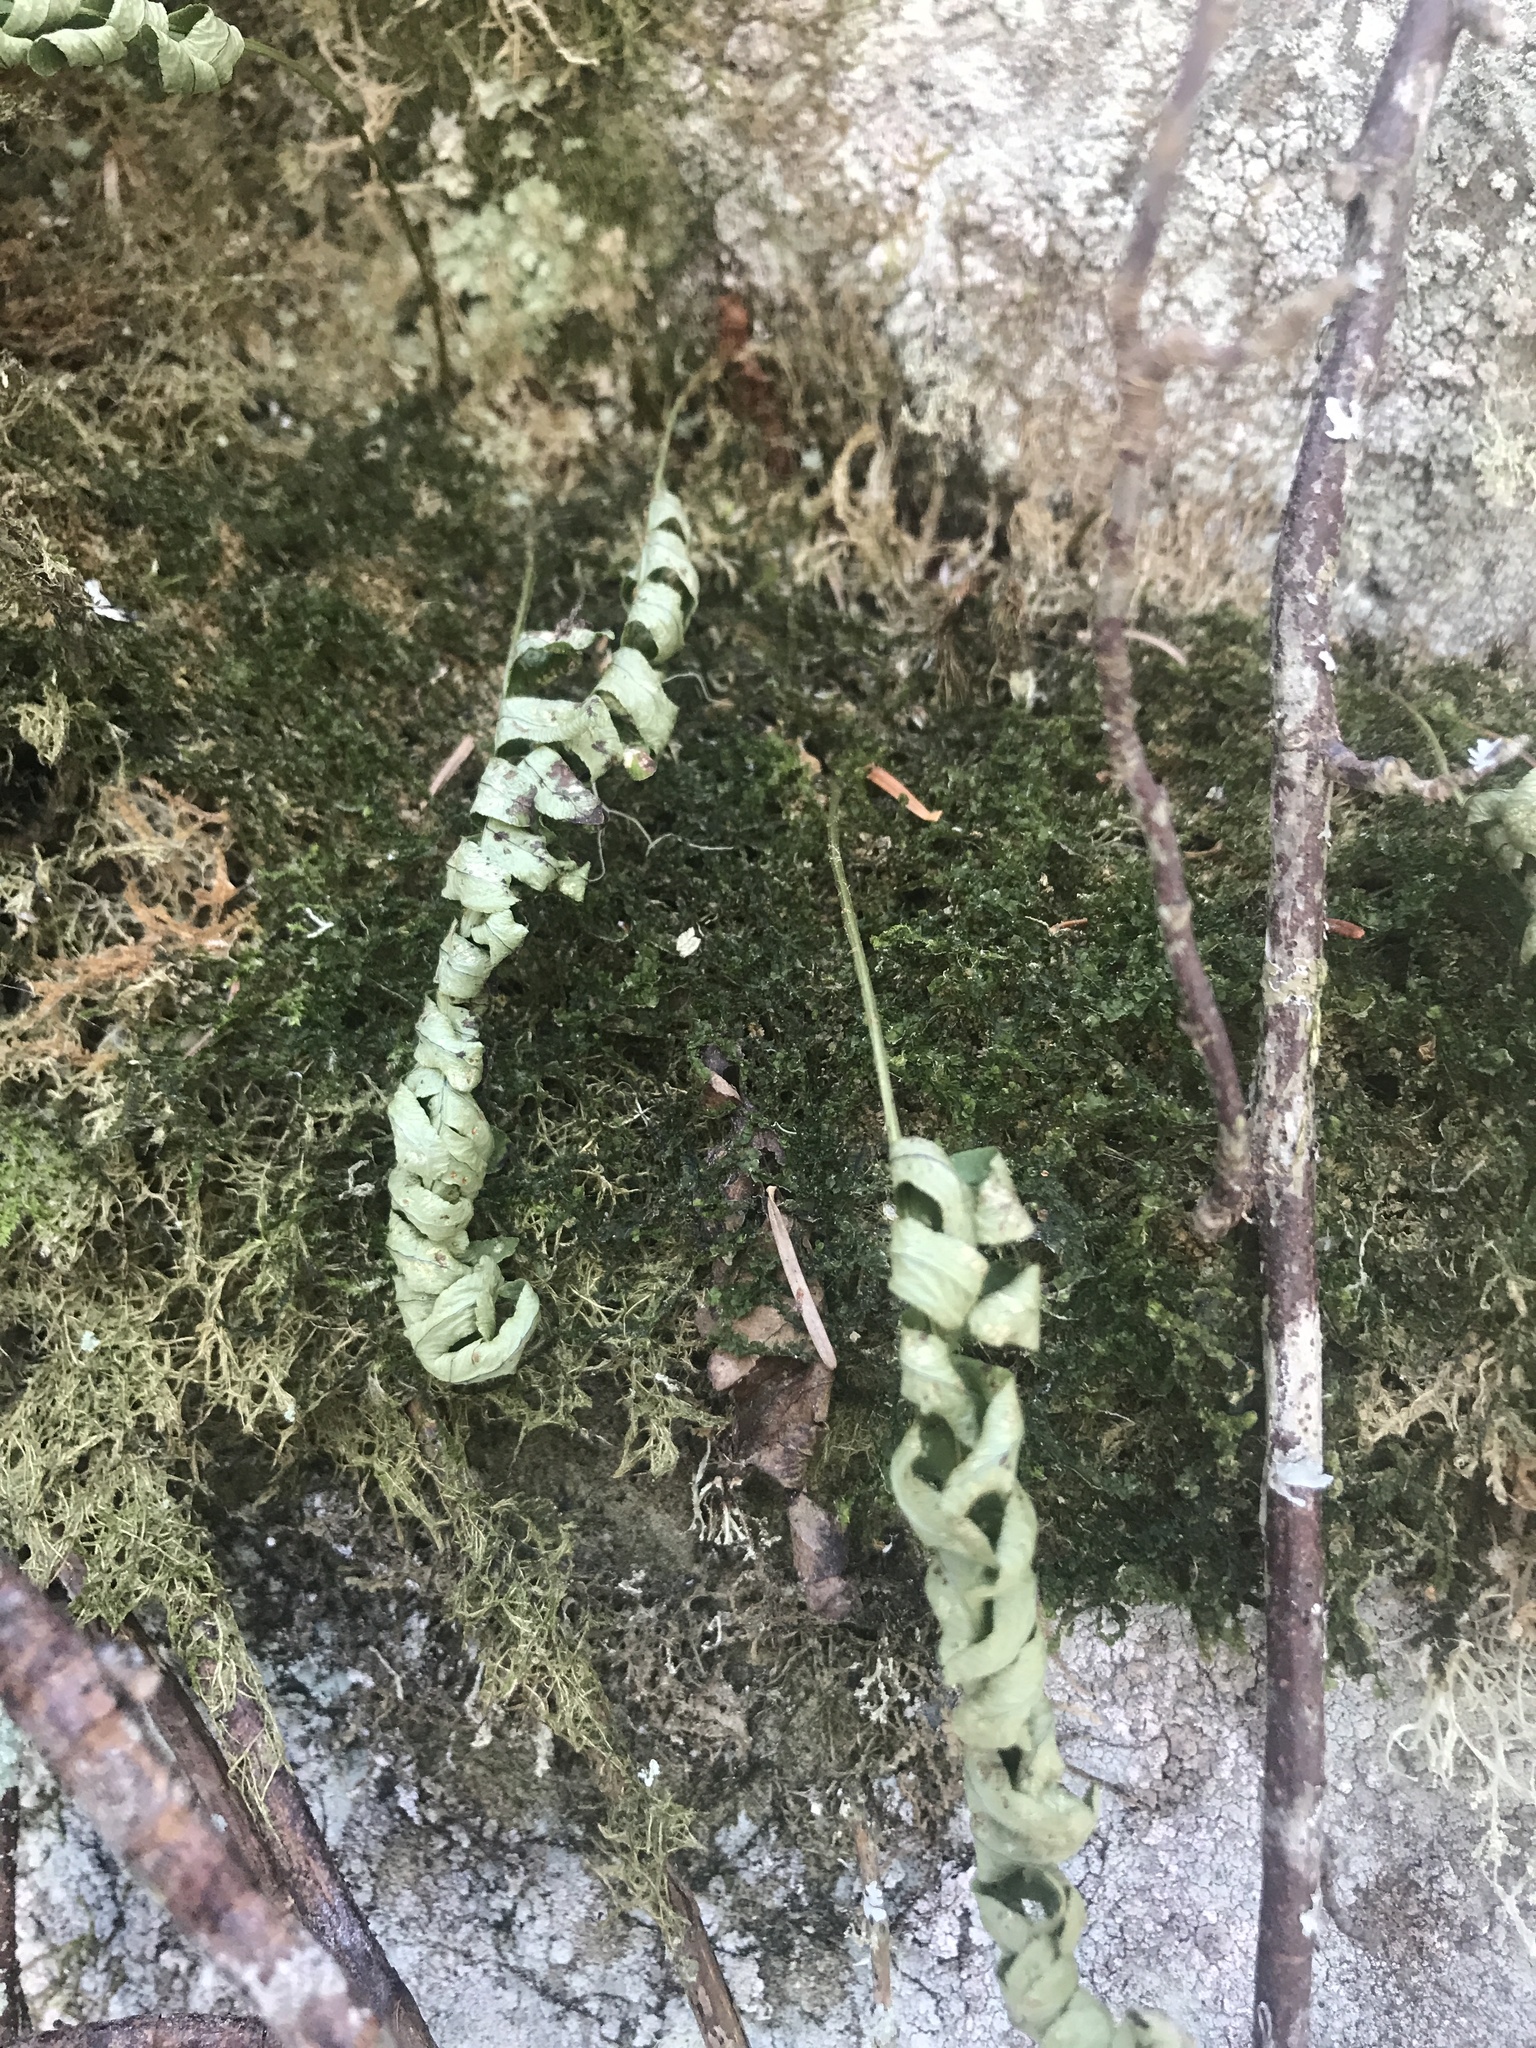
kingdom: Plantae
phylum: Tracheophyta
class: Polypodiopsida
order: Polypodiales
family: Polypodiaceae
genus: Polypodium
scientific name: Polypodium virginianum
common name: American wall fern
